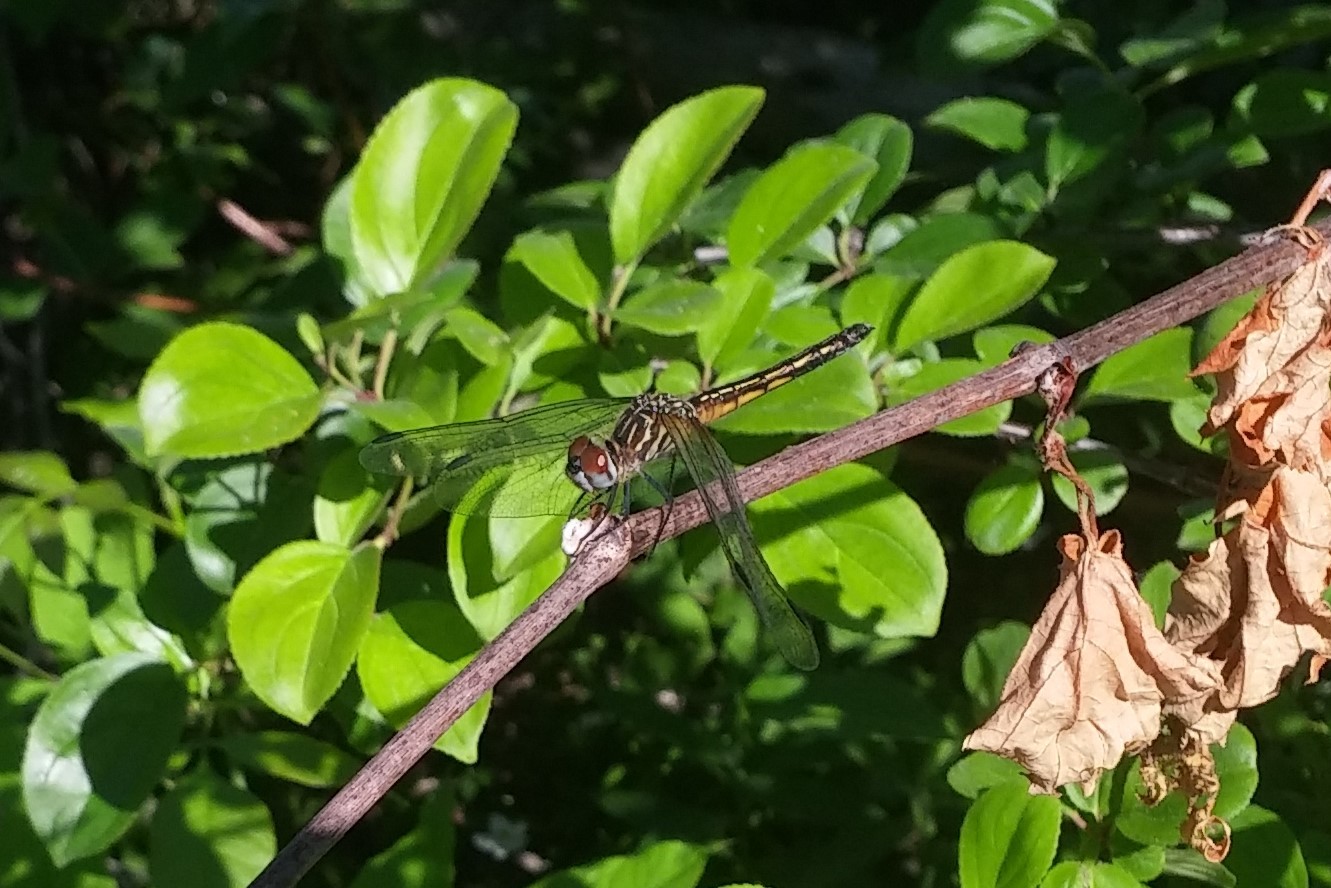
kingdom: Animalia
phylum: Arthropoda
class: Insecta
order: Odonata
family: Libellulidae
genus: Pachydiplax
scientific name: Pachydiplax longipennis
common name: Blue dasher
